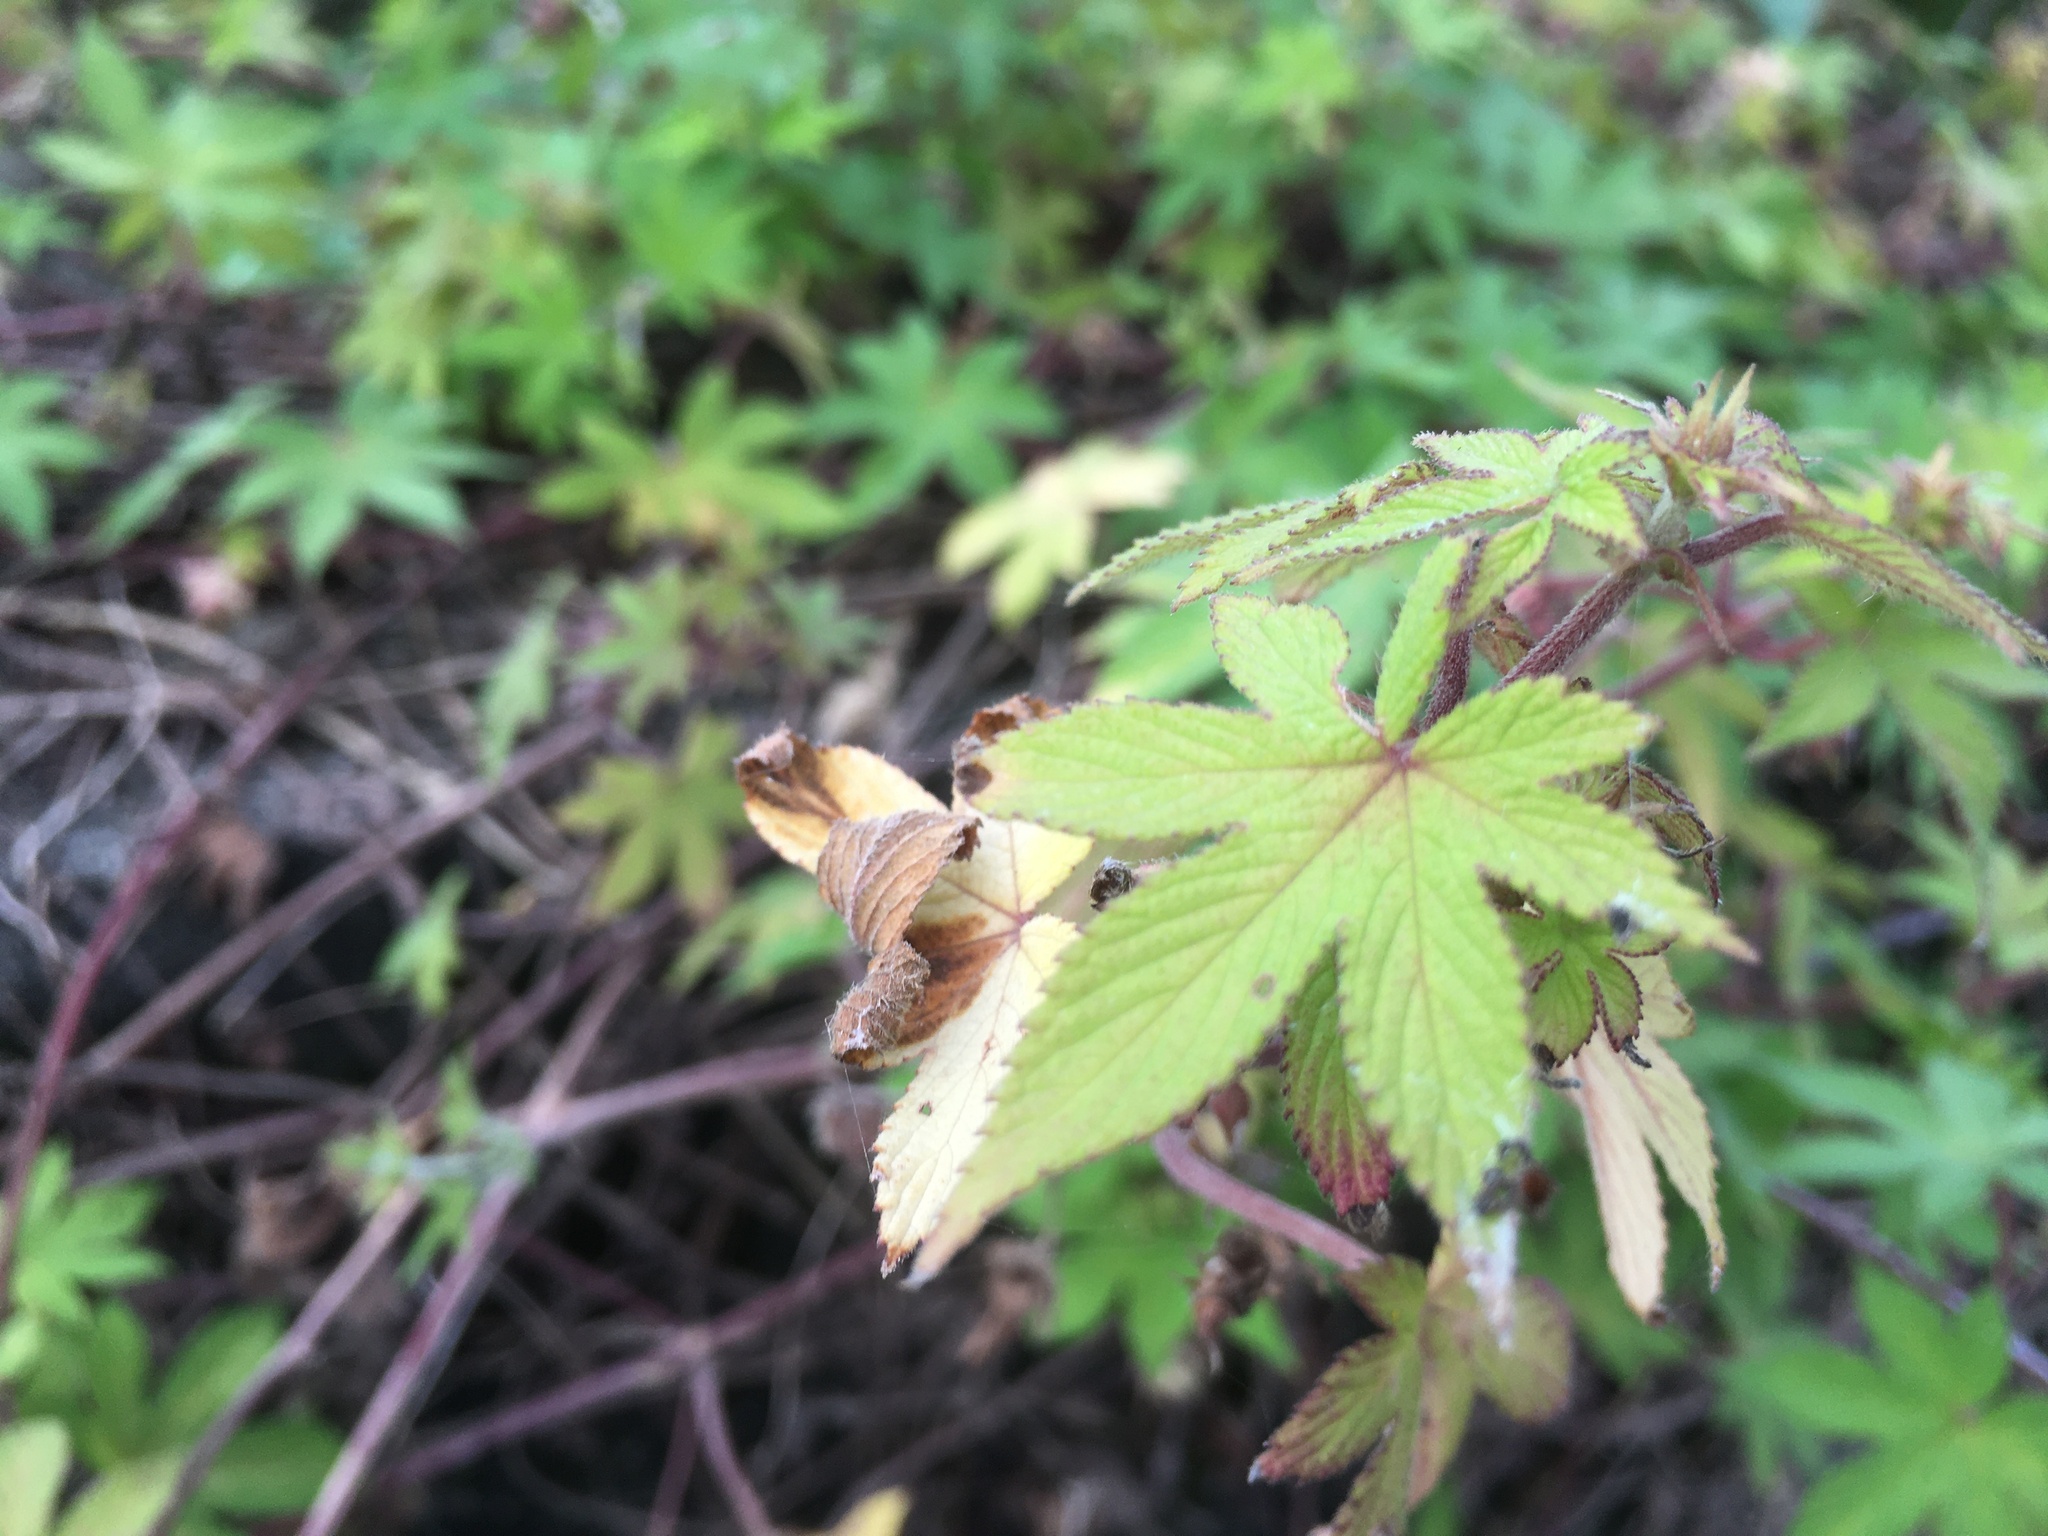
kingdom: Plantae
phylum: Tracheophyta
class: Magnoliopsida
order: Rosales
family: Cannabaceae
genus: Humulus
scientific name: Humulus scandens
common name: Japanese hop
